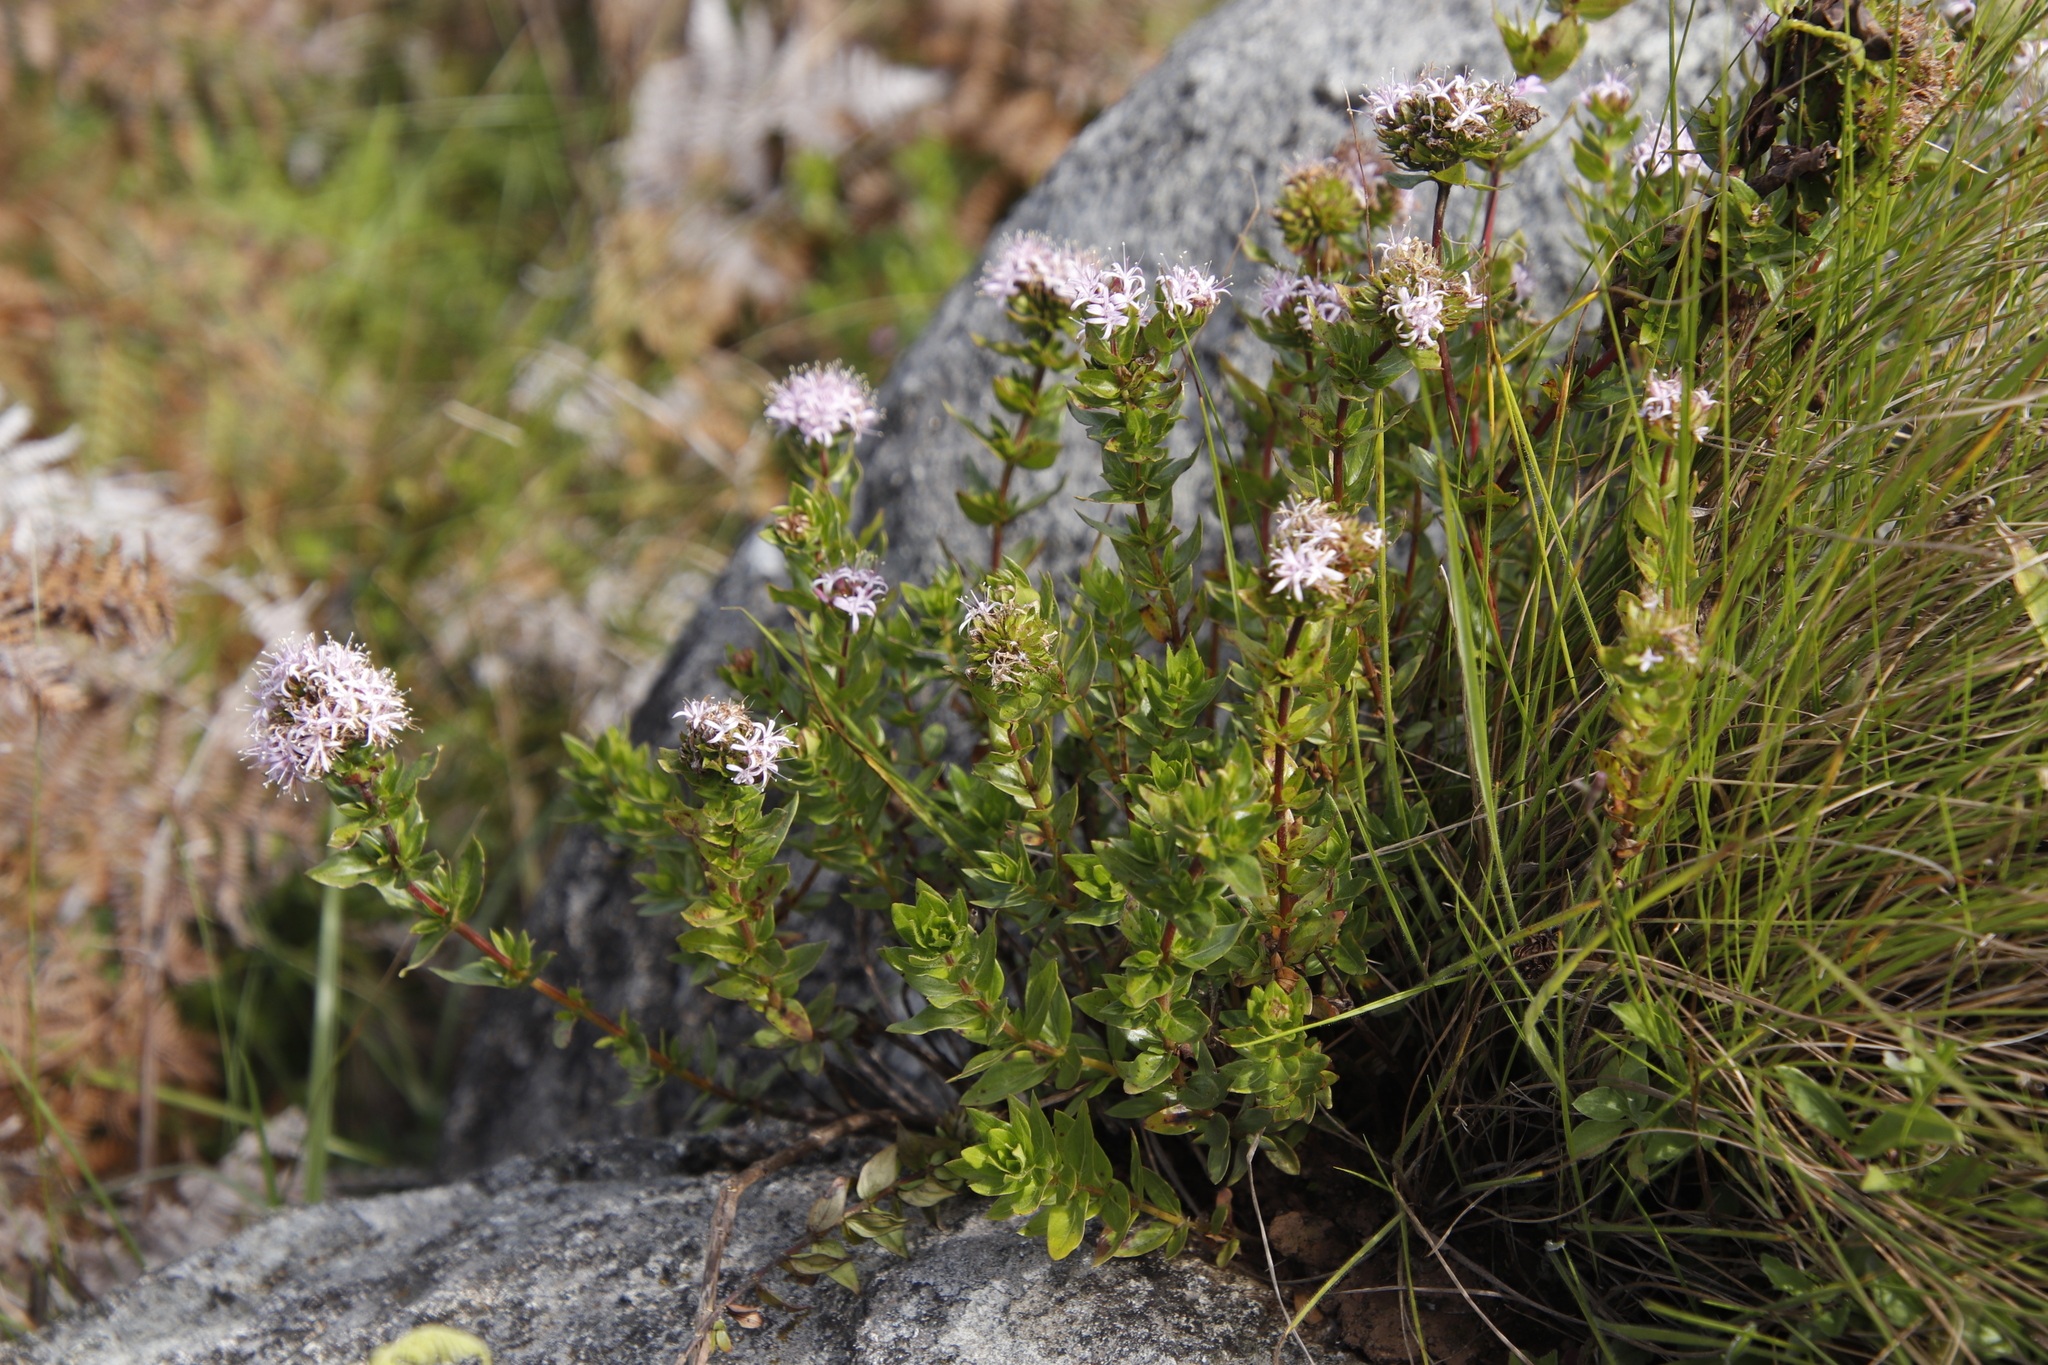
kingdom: Plantae
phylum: Tracheophyta
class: Magnoliopsida
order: Gentianales
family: Rubiaceae
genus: Otiophora
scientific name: Otiophora inyangana
